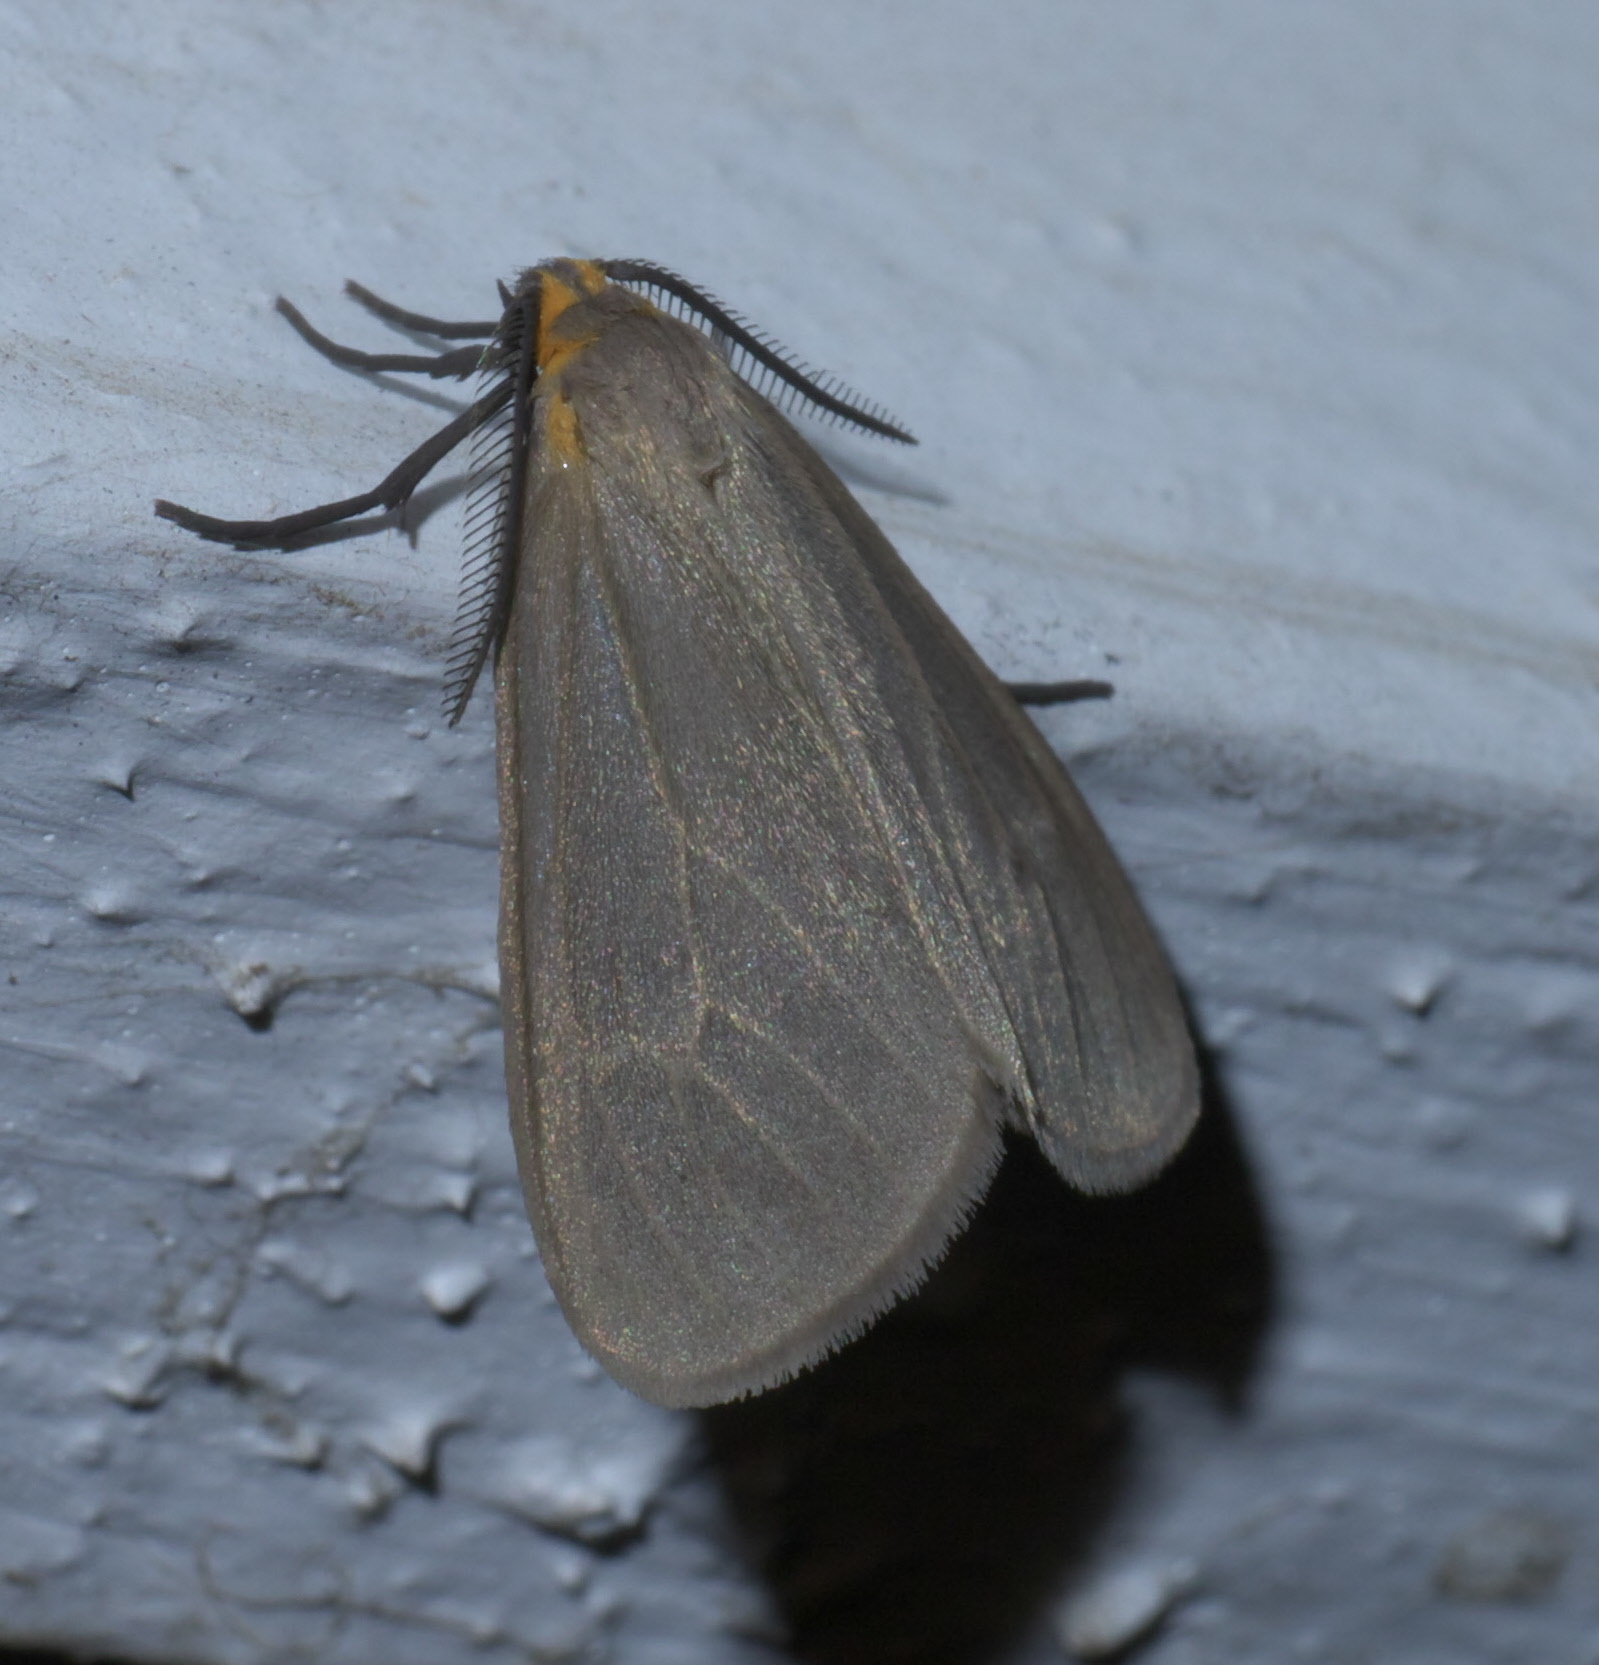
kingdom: Animalia
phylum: Arthropoda
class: Insecta
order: Lepidoptera
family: Erebidae
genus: Pagara
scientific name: Pagara simplex
